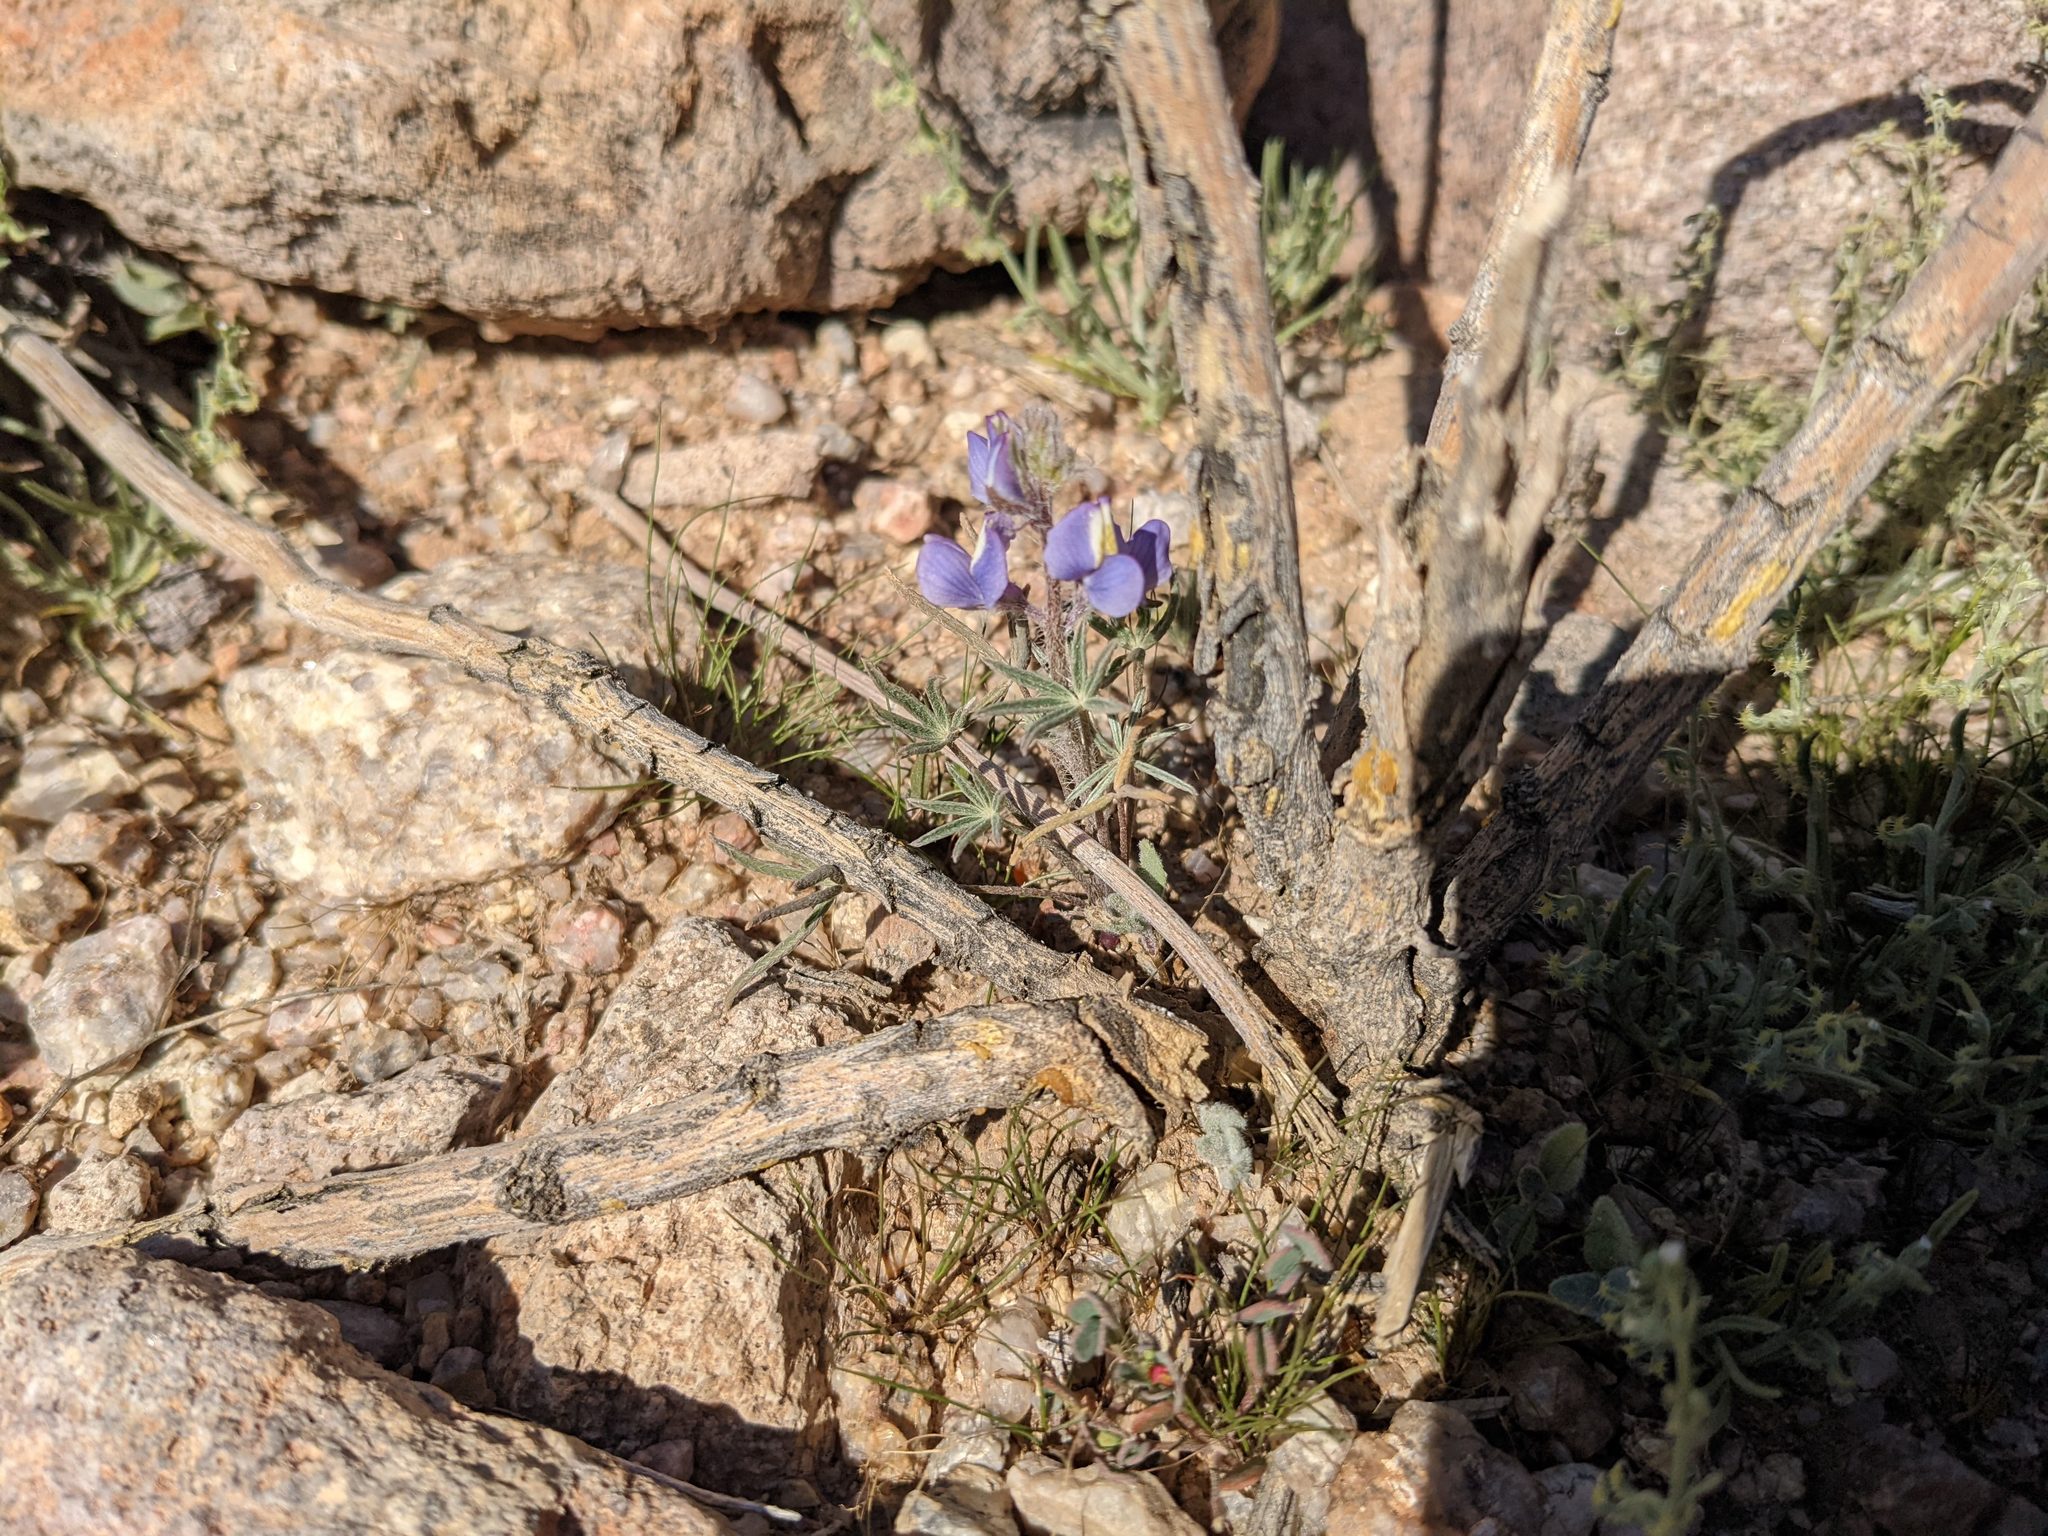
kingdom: Plantae
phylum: Tracheophyta
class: Magnoliopsida
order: Fabales
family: Fabaceae
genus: Lupinus
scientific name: Lupinus sparsiflorus
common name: Coulter's lupine
